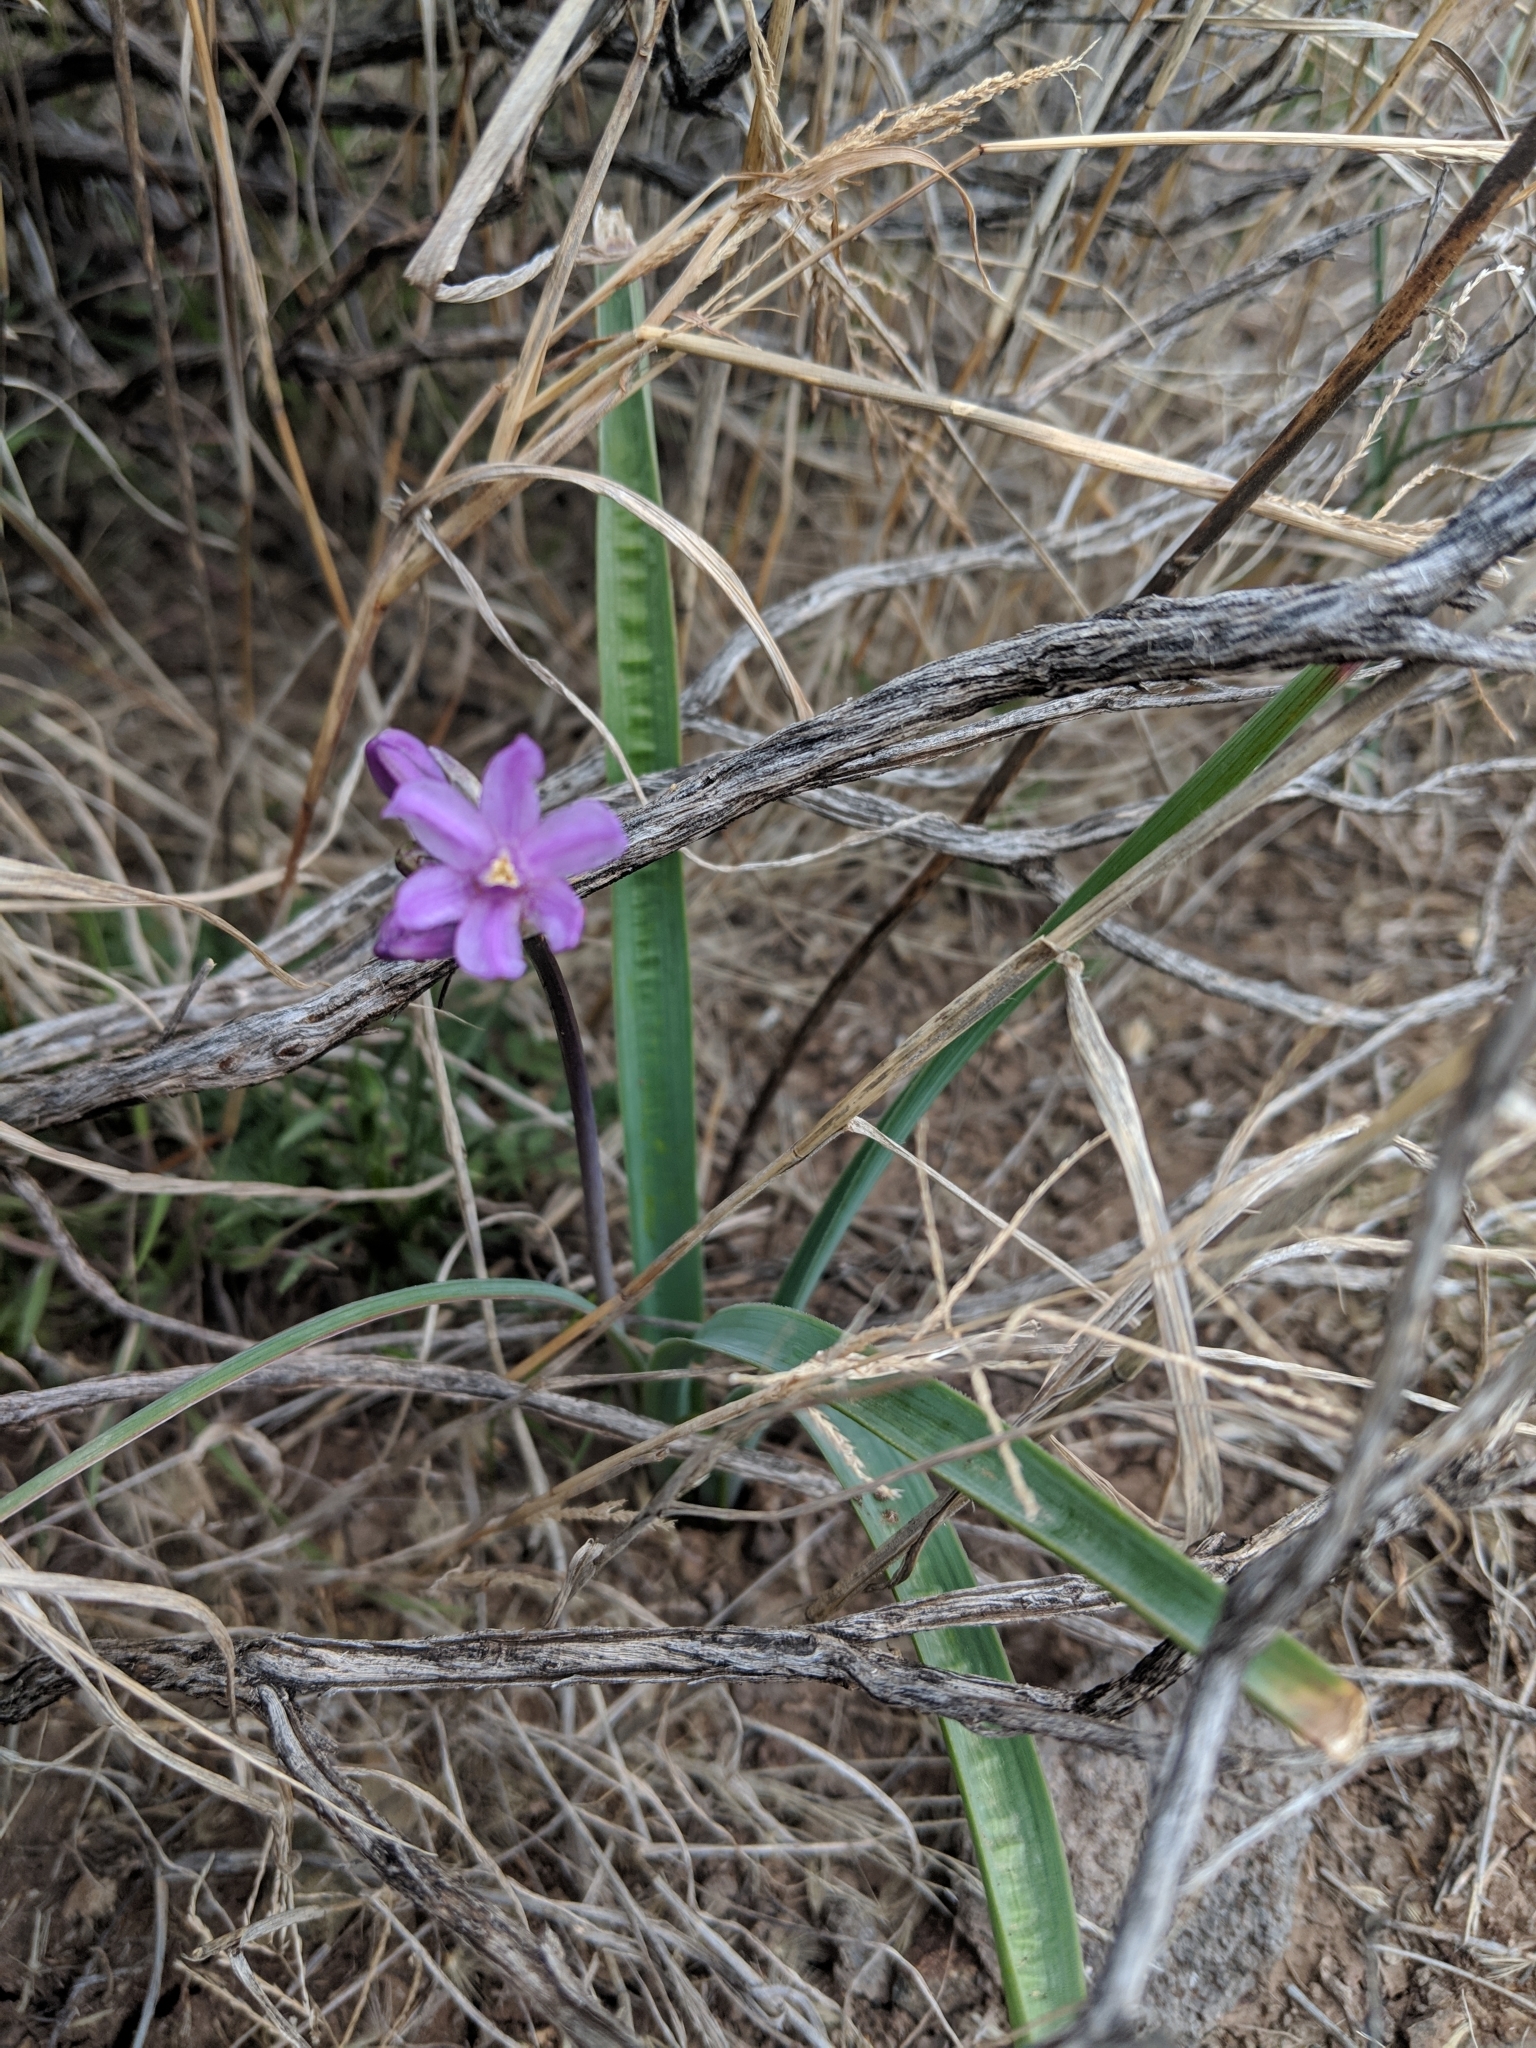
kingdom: Plantae
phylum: Tracheophyta
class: Liliopsida
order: Asparagales
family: Asparagaceae
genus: Dipterostemon
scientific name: Dipterostemon capitatus
